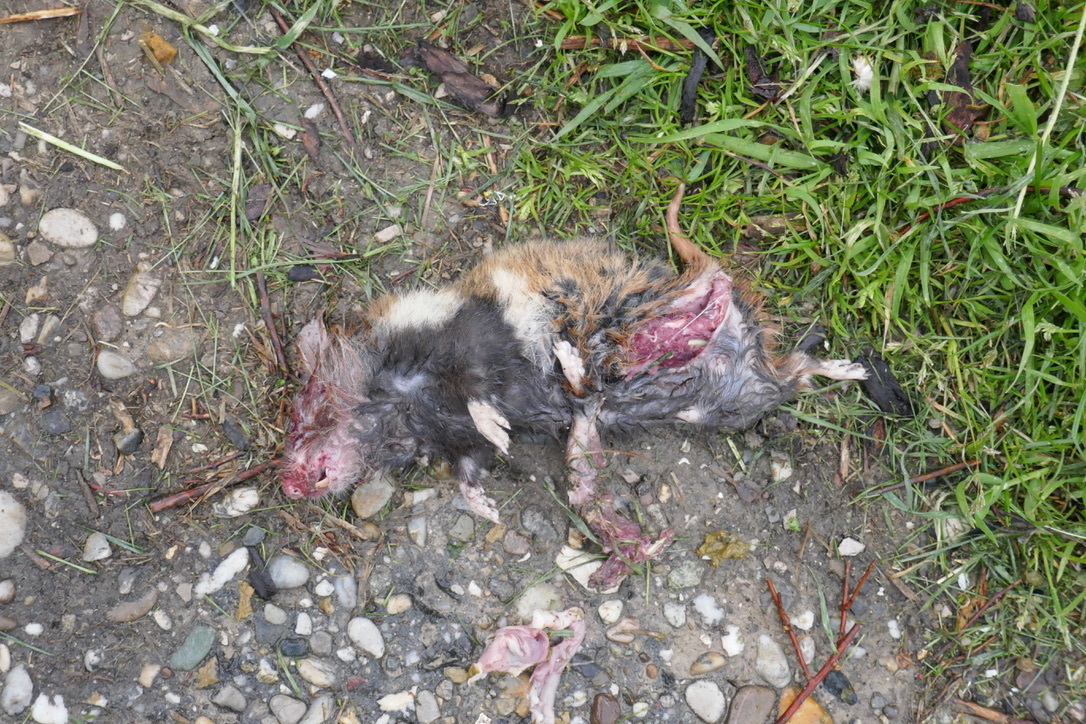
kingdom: Animalia
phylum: Chordata
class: Mammalia
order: Rodentia
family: Cricetidae
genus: Cricetus
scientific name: Cricetus cricetus
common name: Common hamster
